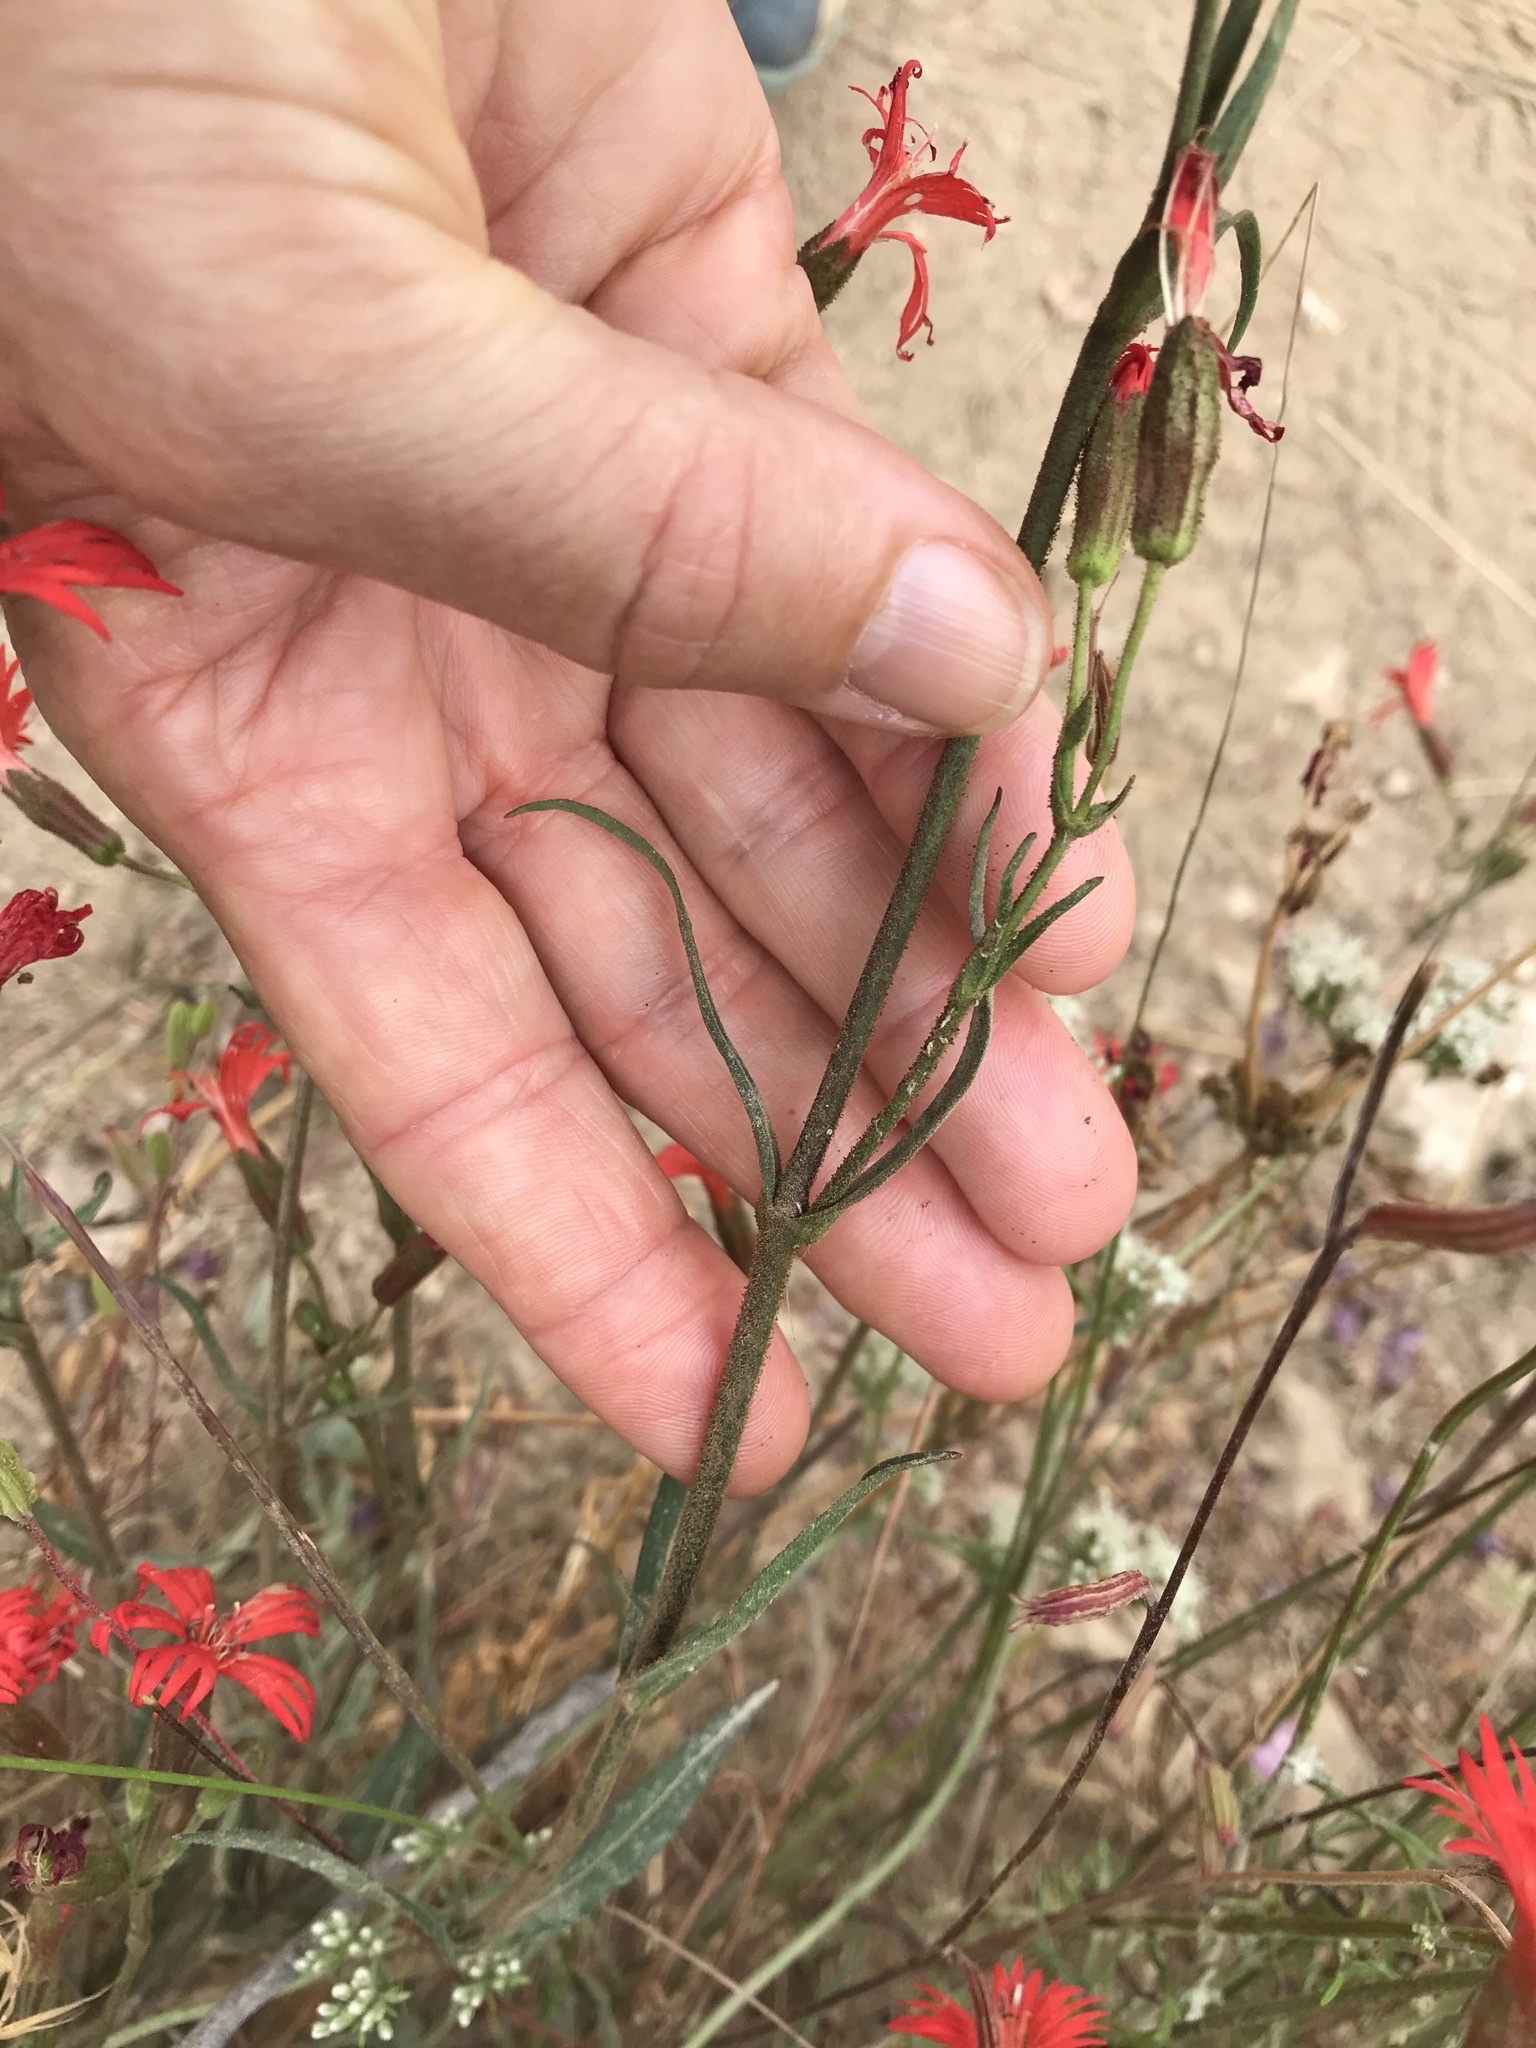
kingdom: Plantae
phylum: Tracheophyta
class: Magnoliopsida
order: Caryophyllales
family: Caryophyllaceae
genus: Silene
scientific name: Silene laciniata
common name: Indian-pink
